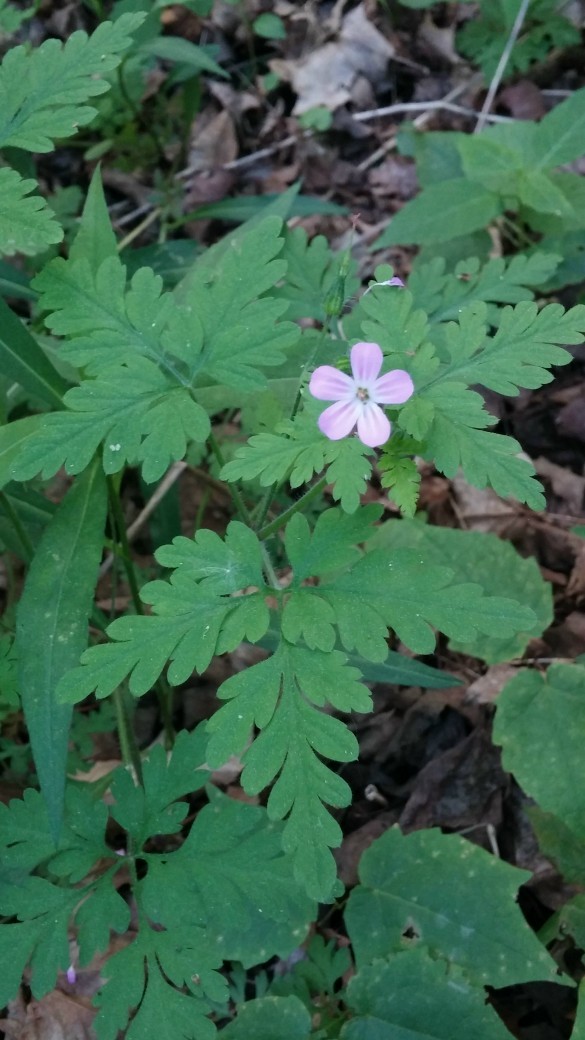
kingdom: Plantae
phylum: Tracheophyta
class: Magnoliopsida
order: Geraniales
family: Geraniaceae
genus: Geranium
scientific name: Geranium robertianum
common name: Herb-robert
